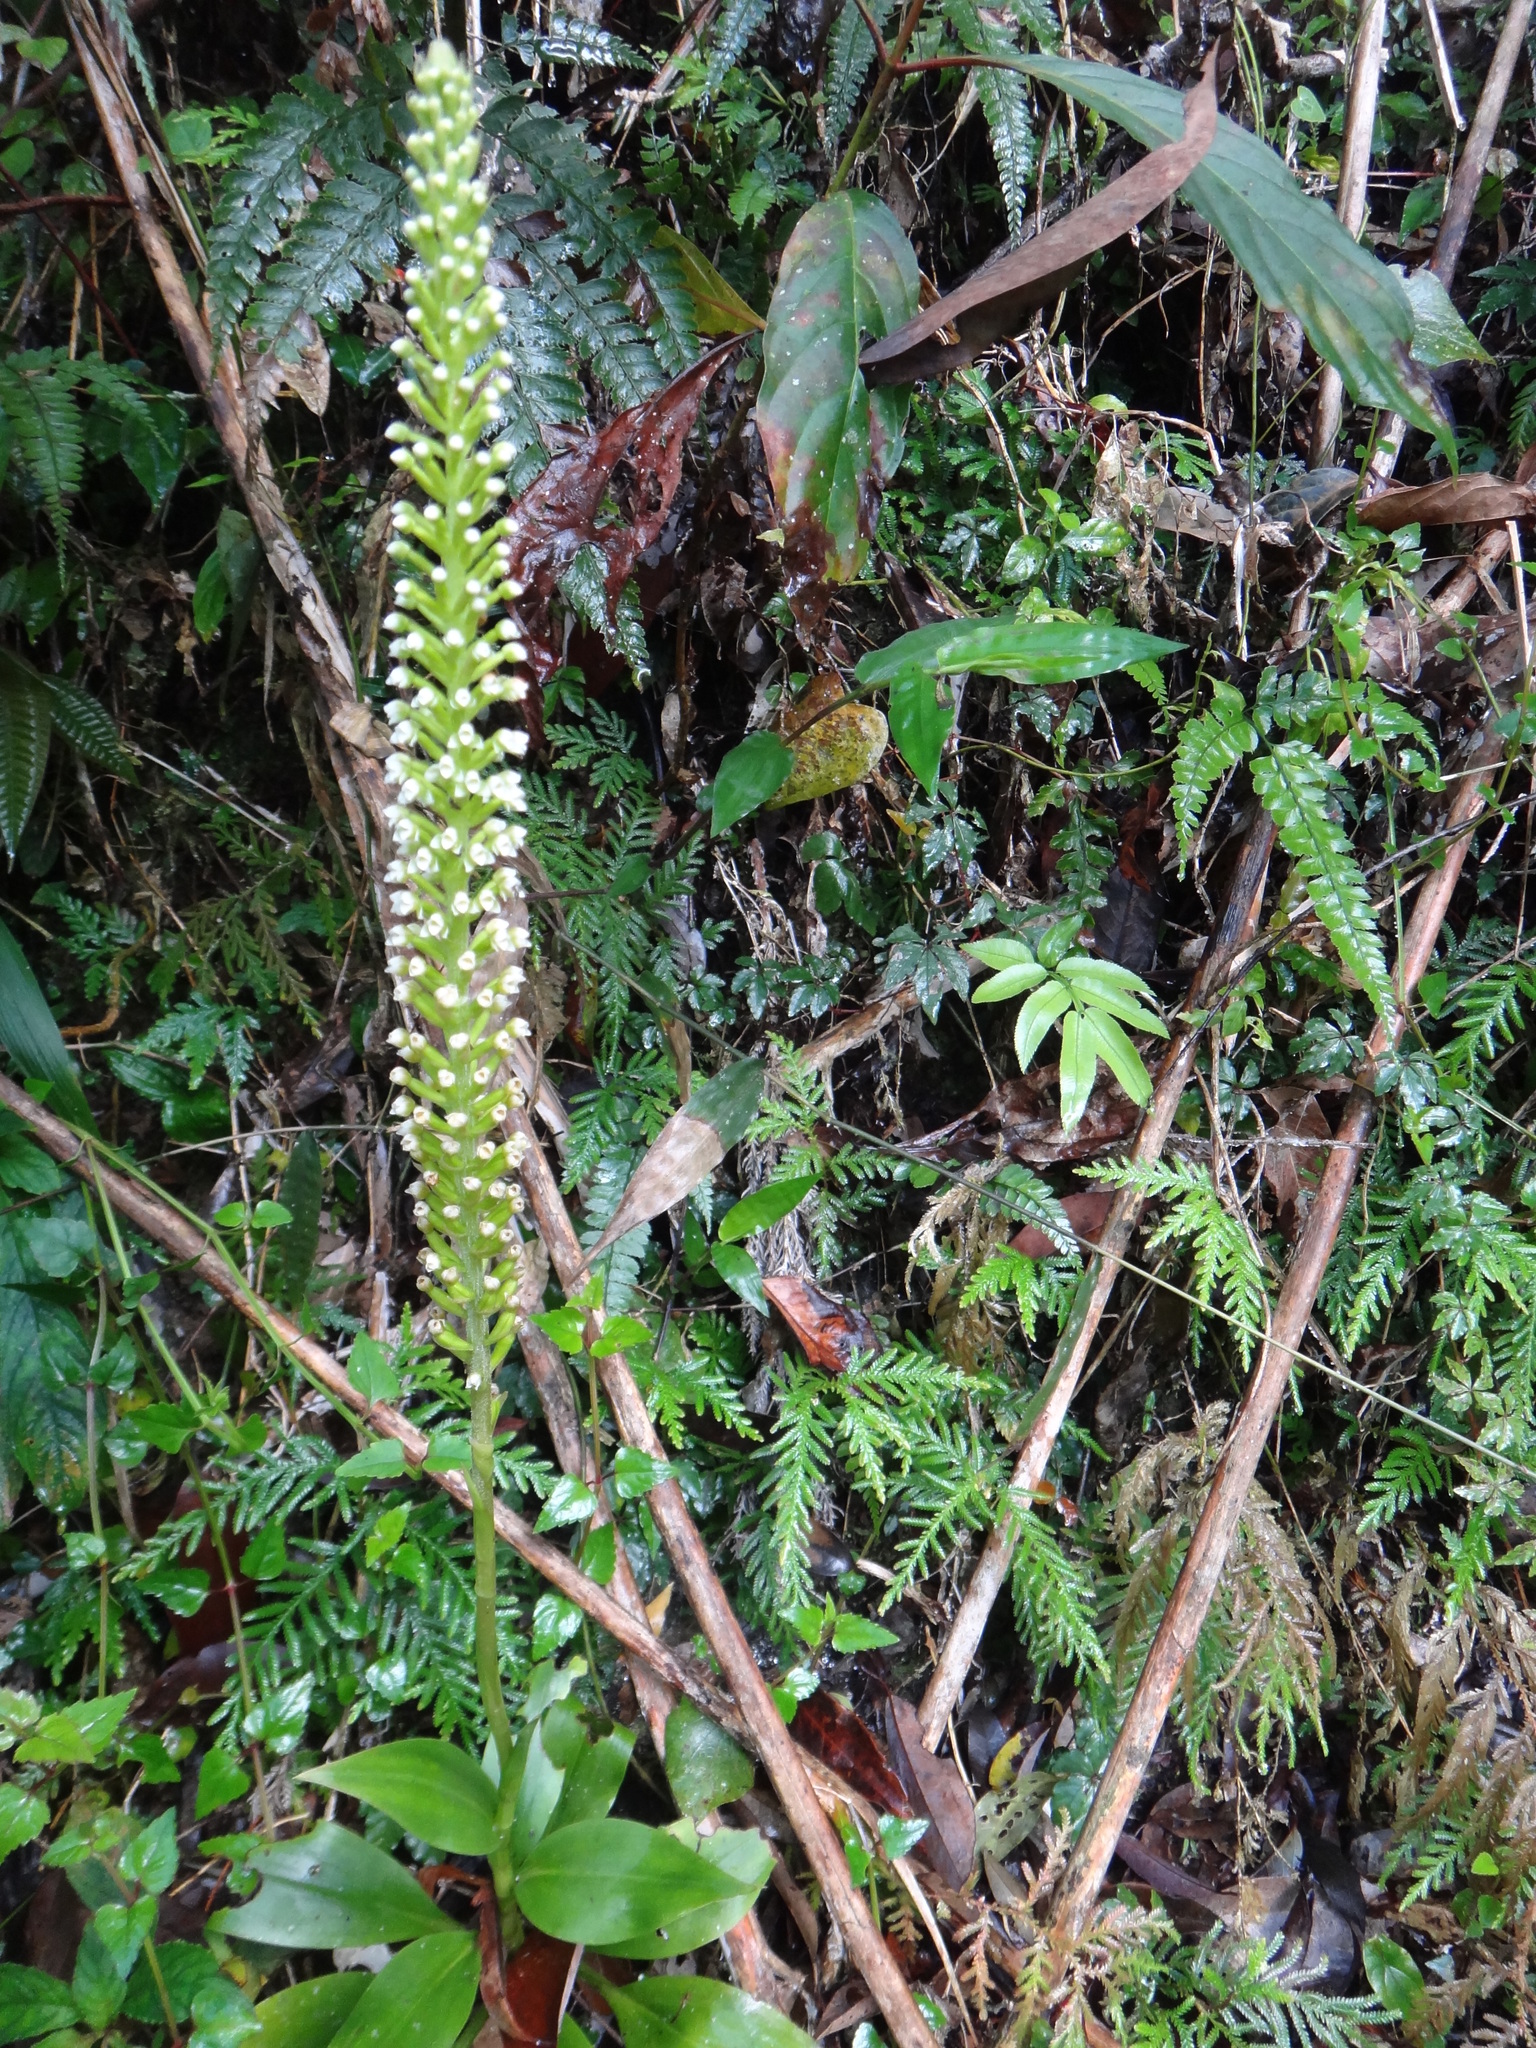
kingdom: Plantae
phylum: Tracheophyta
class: Liliopsida
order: Asparagales
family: Orchidaceae
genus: Goodyera
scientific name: Goodyera procera
